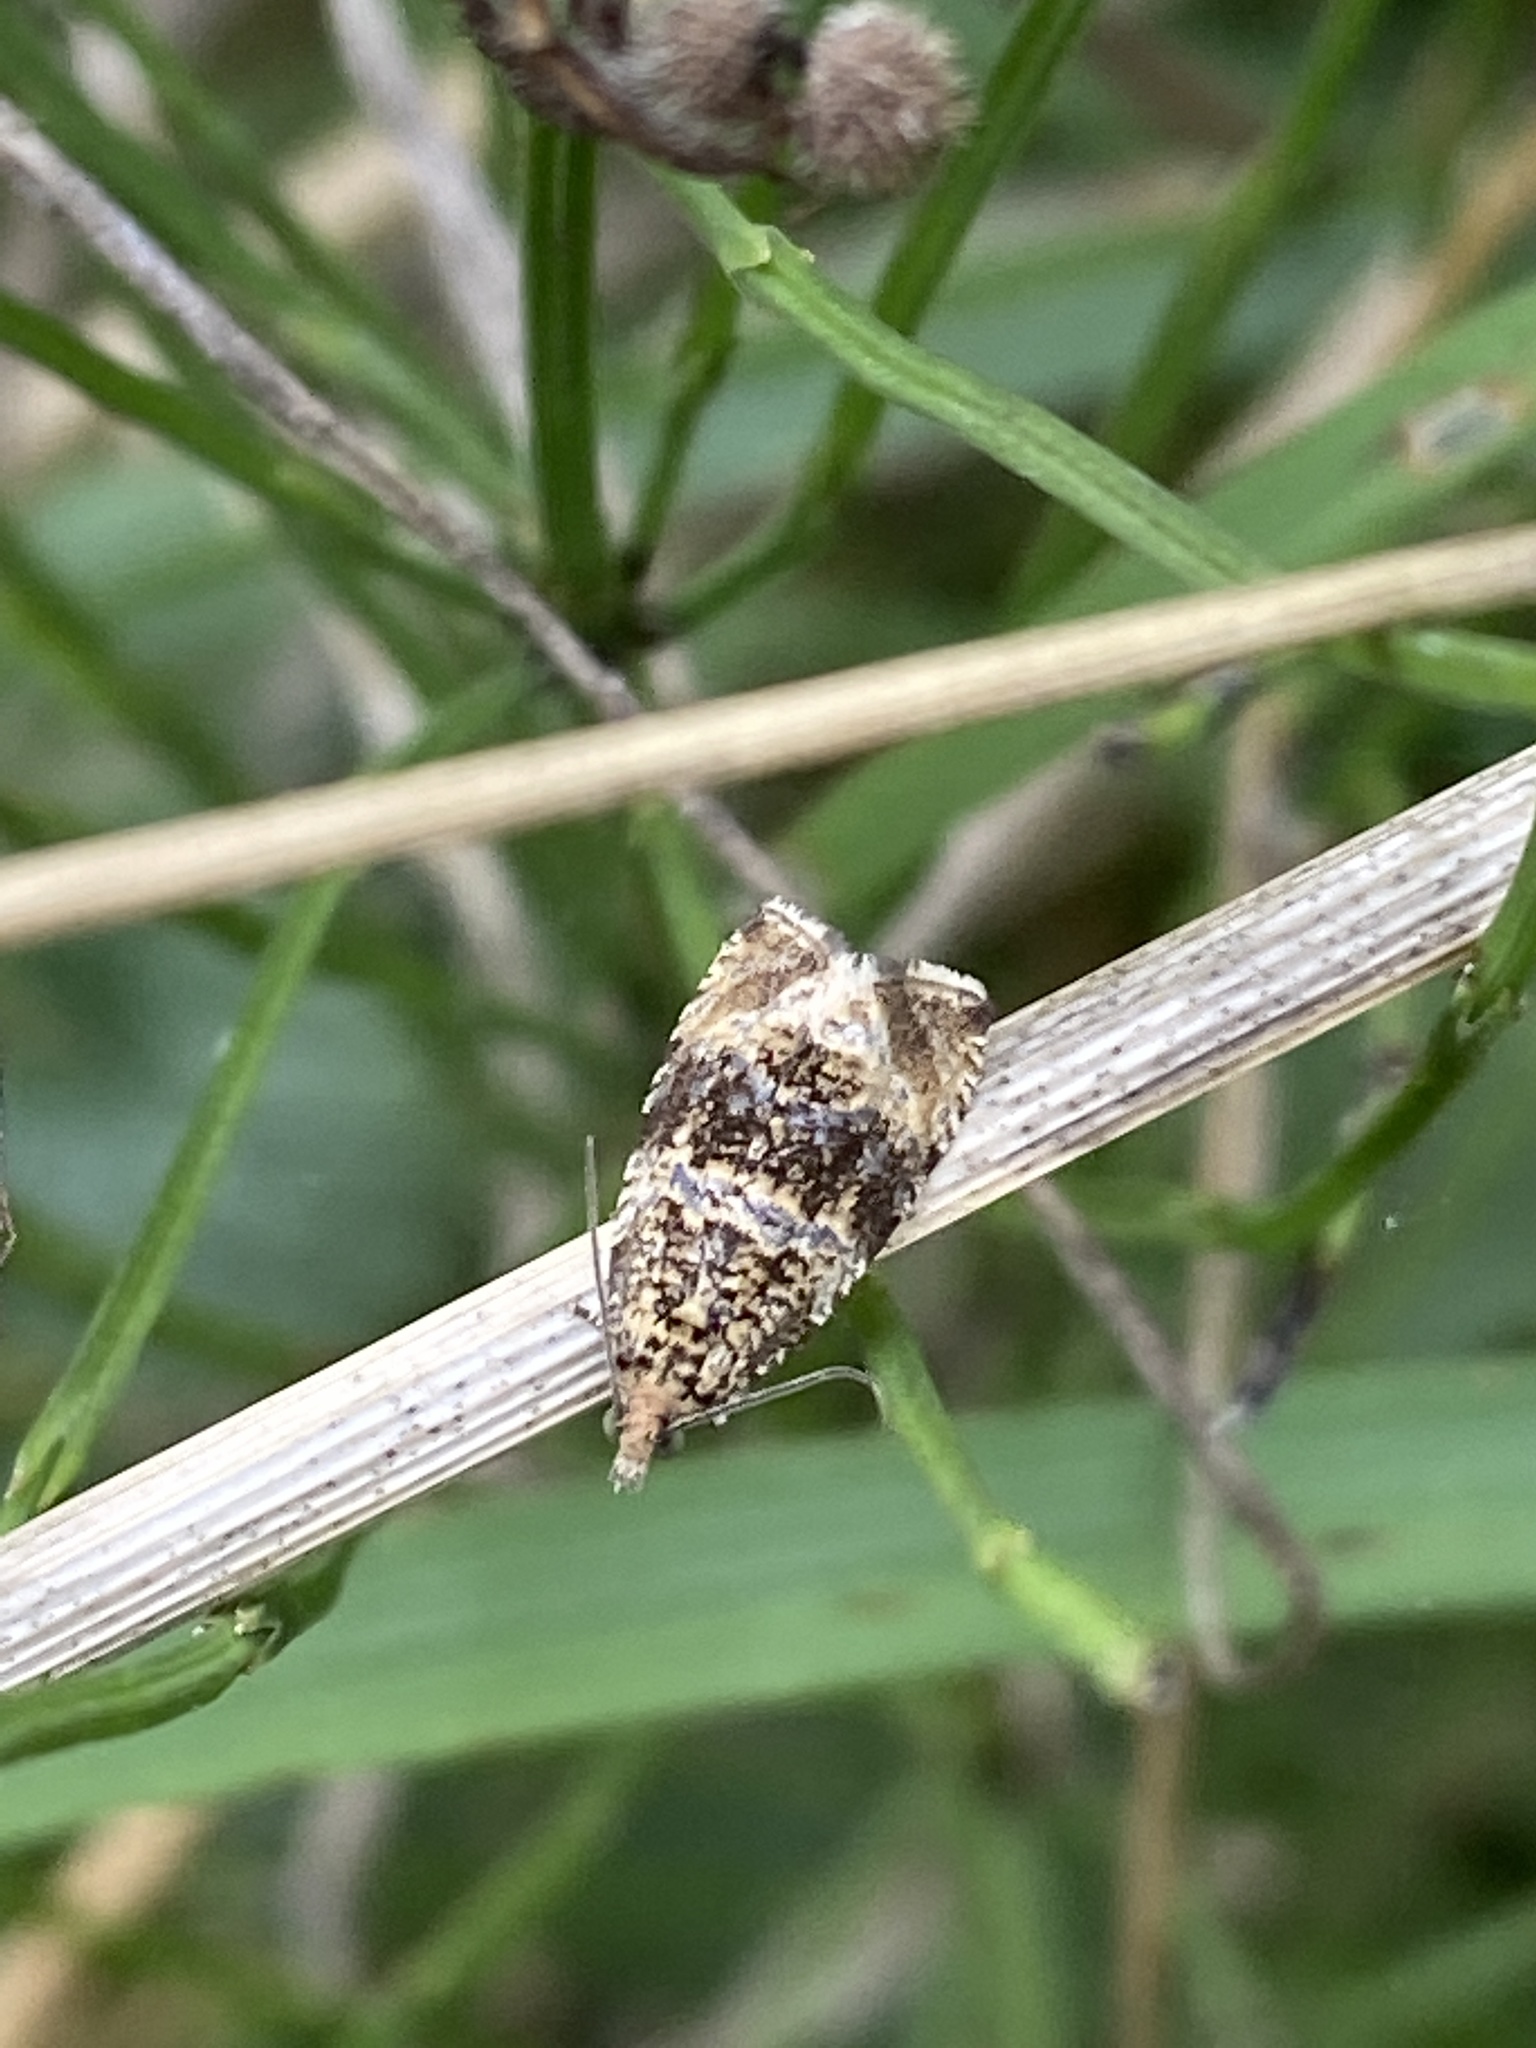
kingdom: Animalia
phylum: Arthropoda
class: Insecta
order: Lepidoptera
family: Tortricidae
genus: Syricoris
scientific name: Syricoris lacunana
